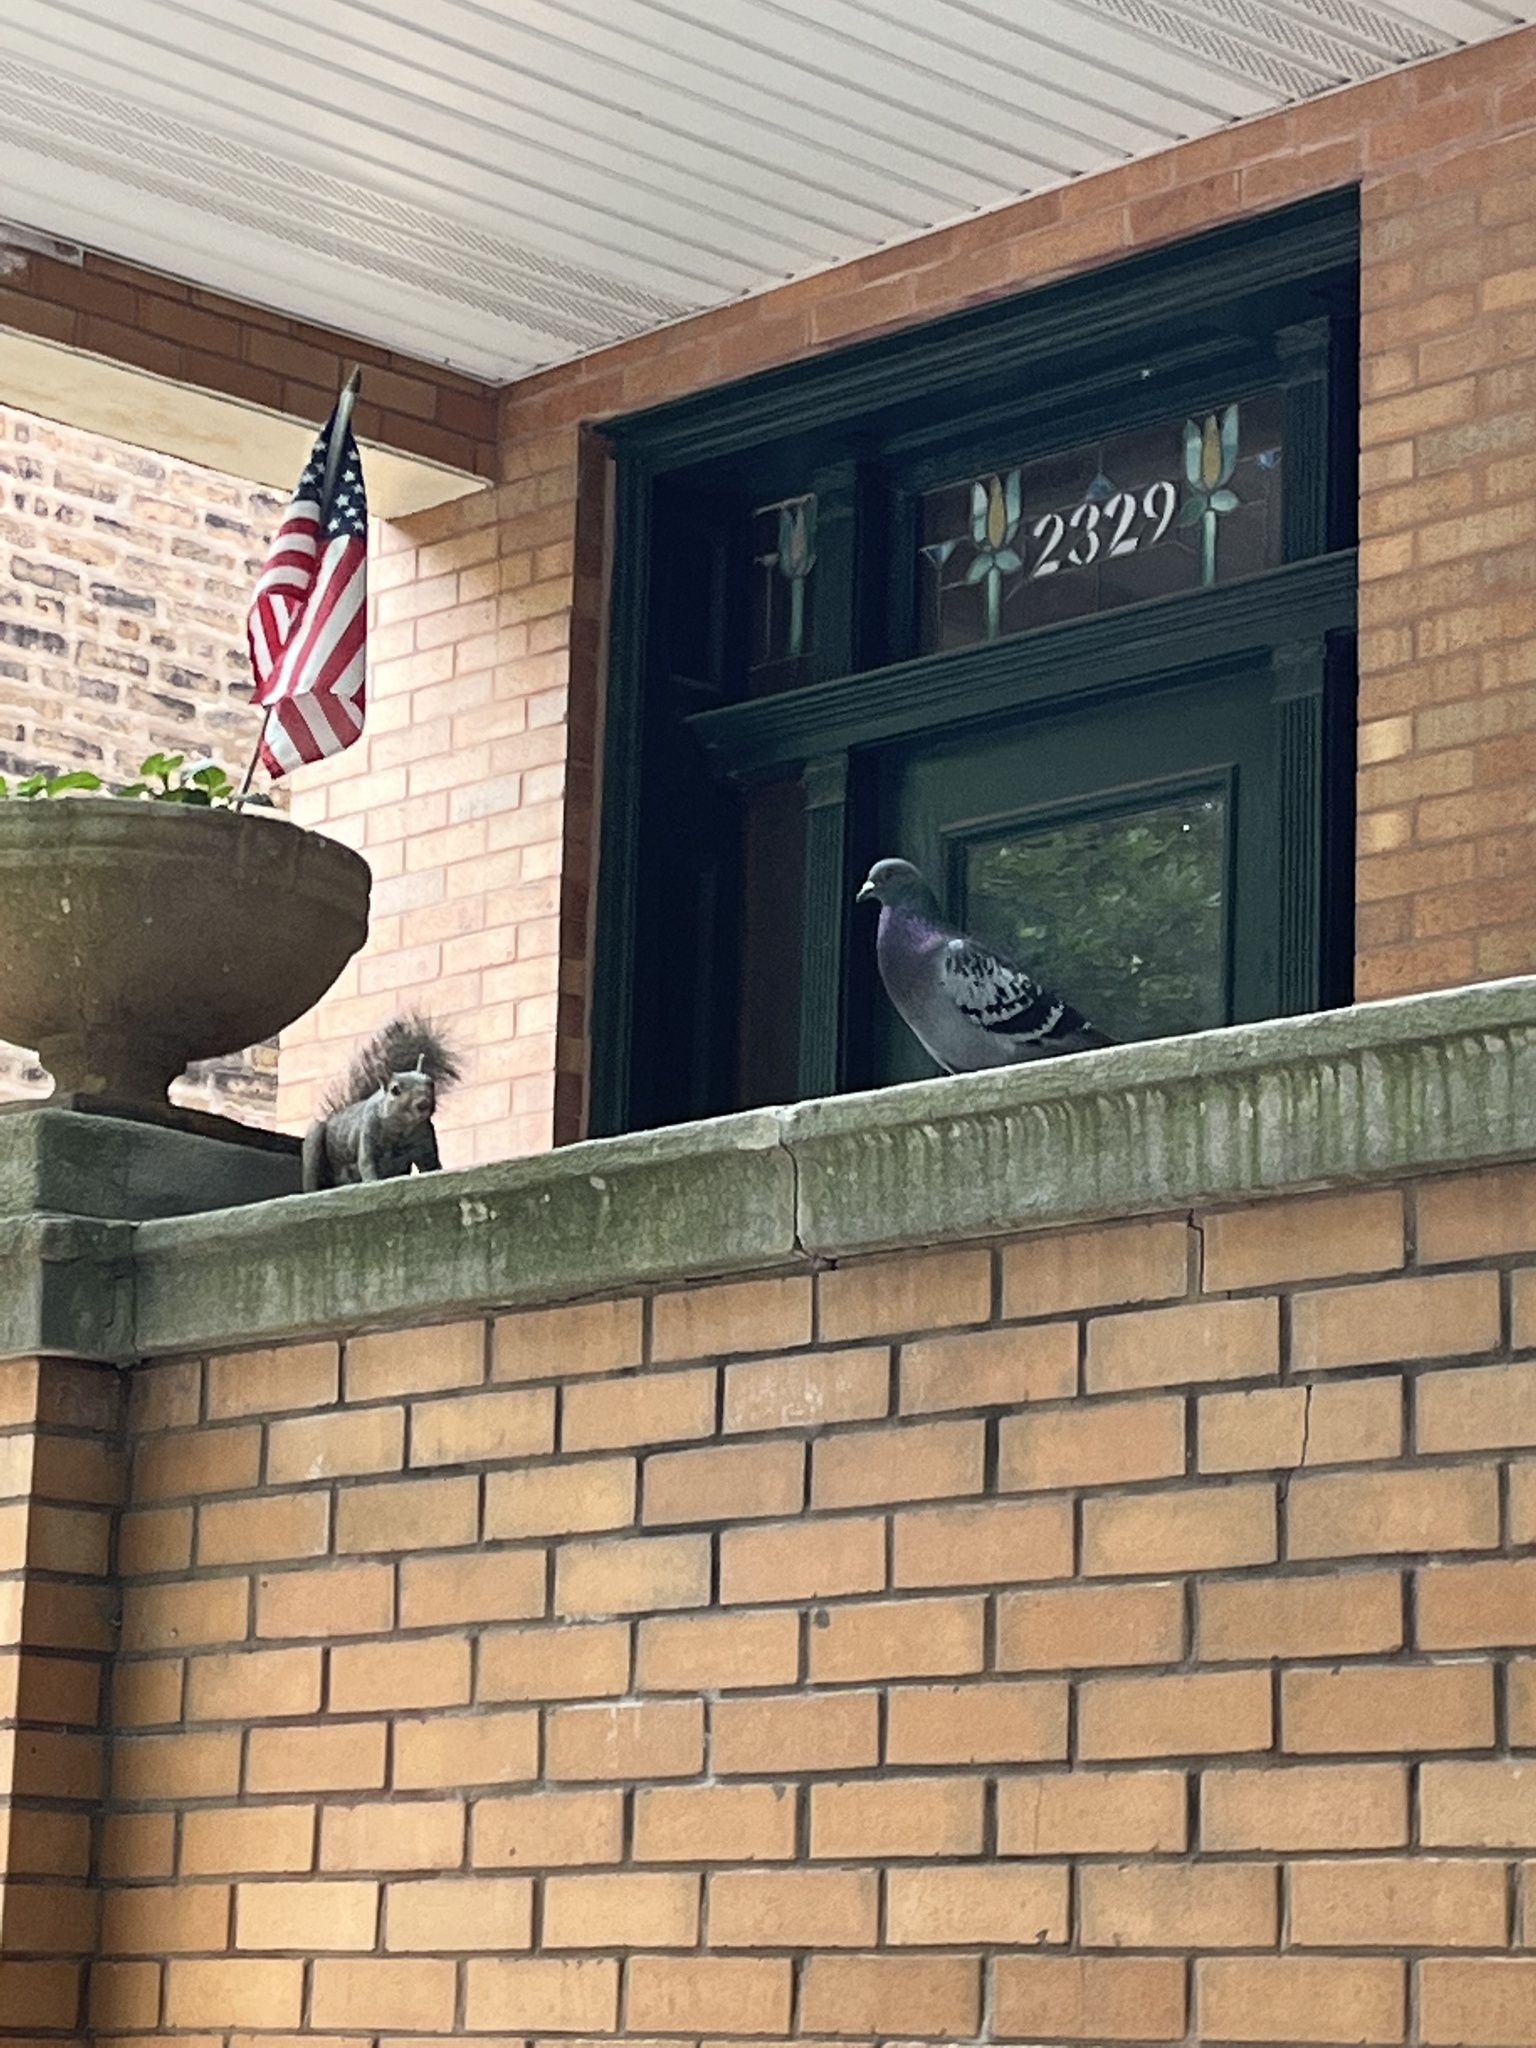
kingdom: Animalia
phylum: Chordata
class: Mammalia
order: Rodentia
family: Sciuridae
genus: Sciurus
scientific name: Sciurus carolinensis
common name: Eastern gray squirrel
